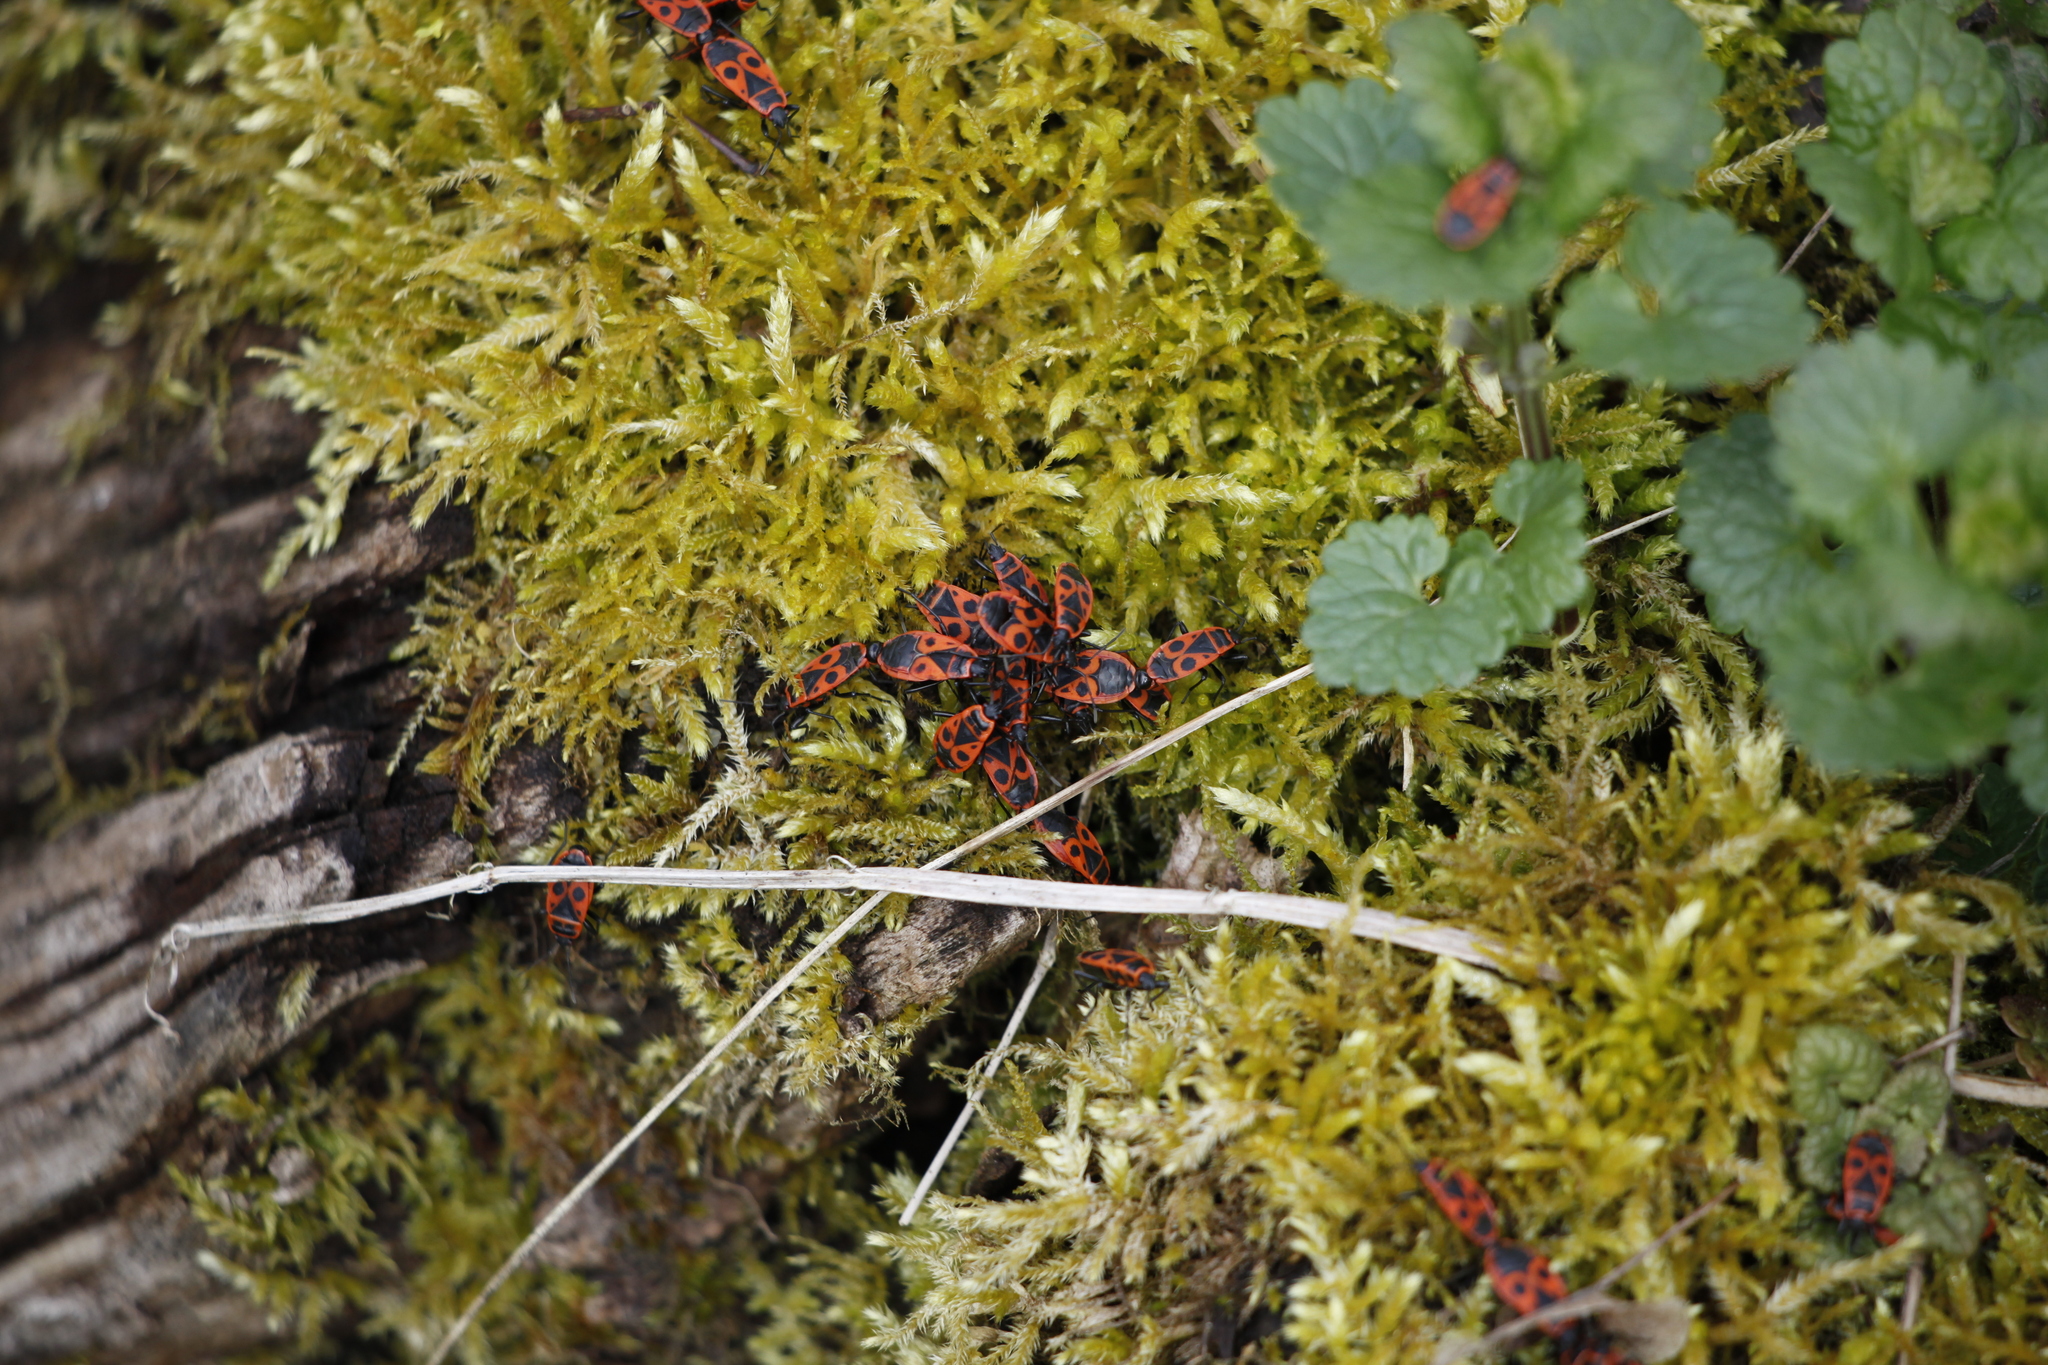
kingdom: Animalia
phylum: Arthropoda
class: Insecta
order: Hemiptera
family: Pyrrhocoridae
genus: Pyrrhocoris
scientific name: Pyrrhocoris apterus
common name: Firebug
